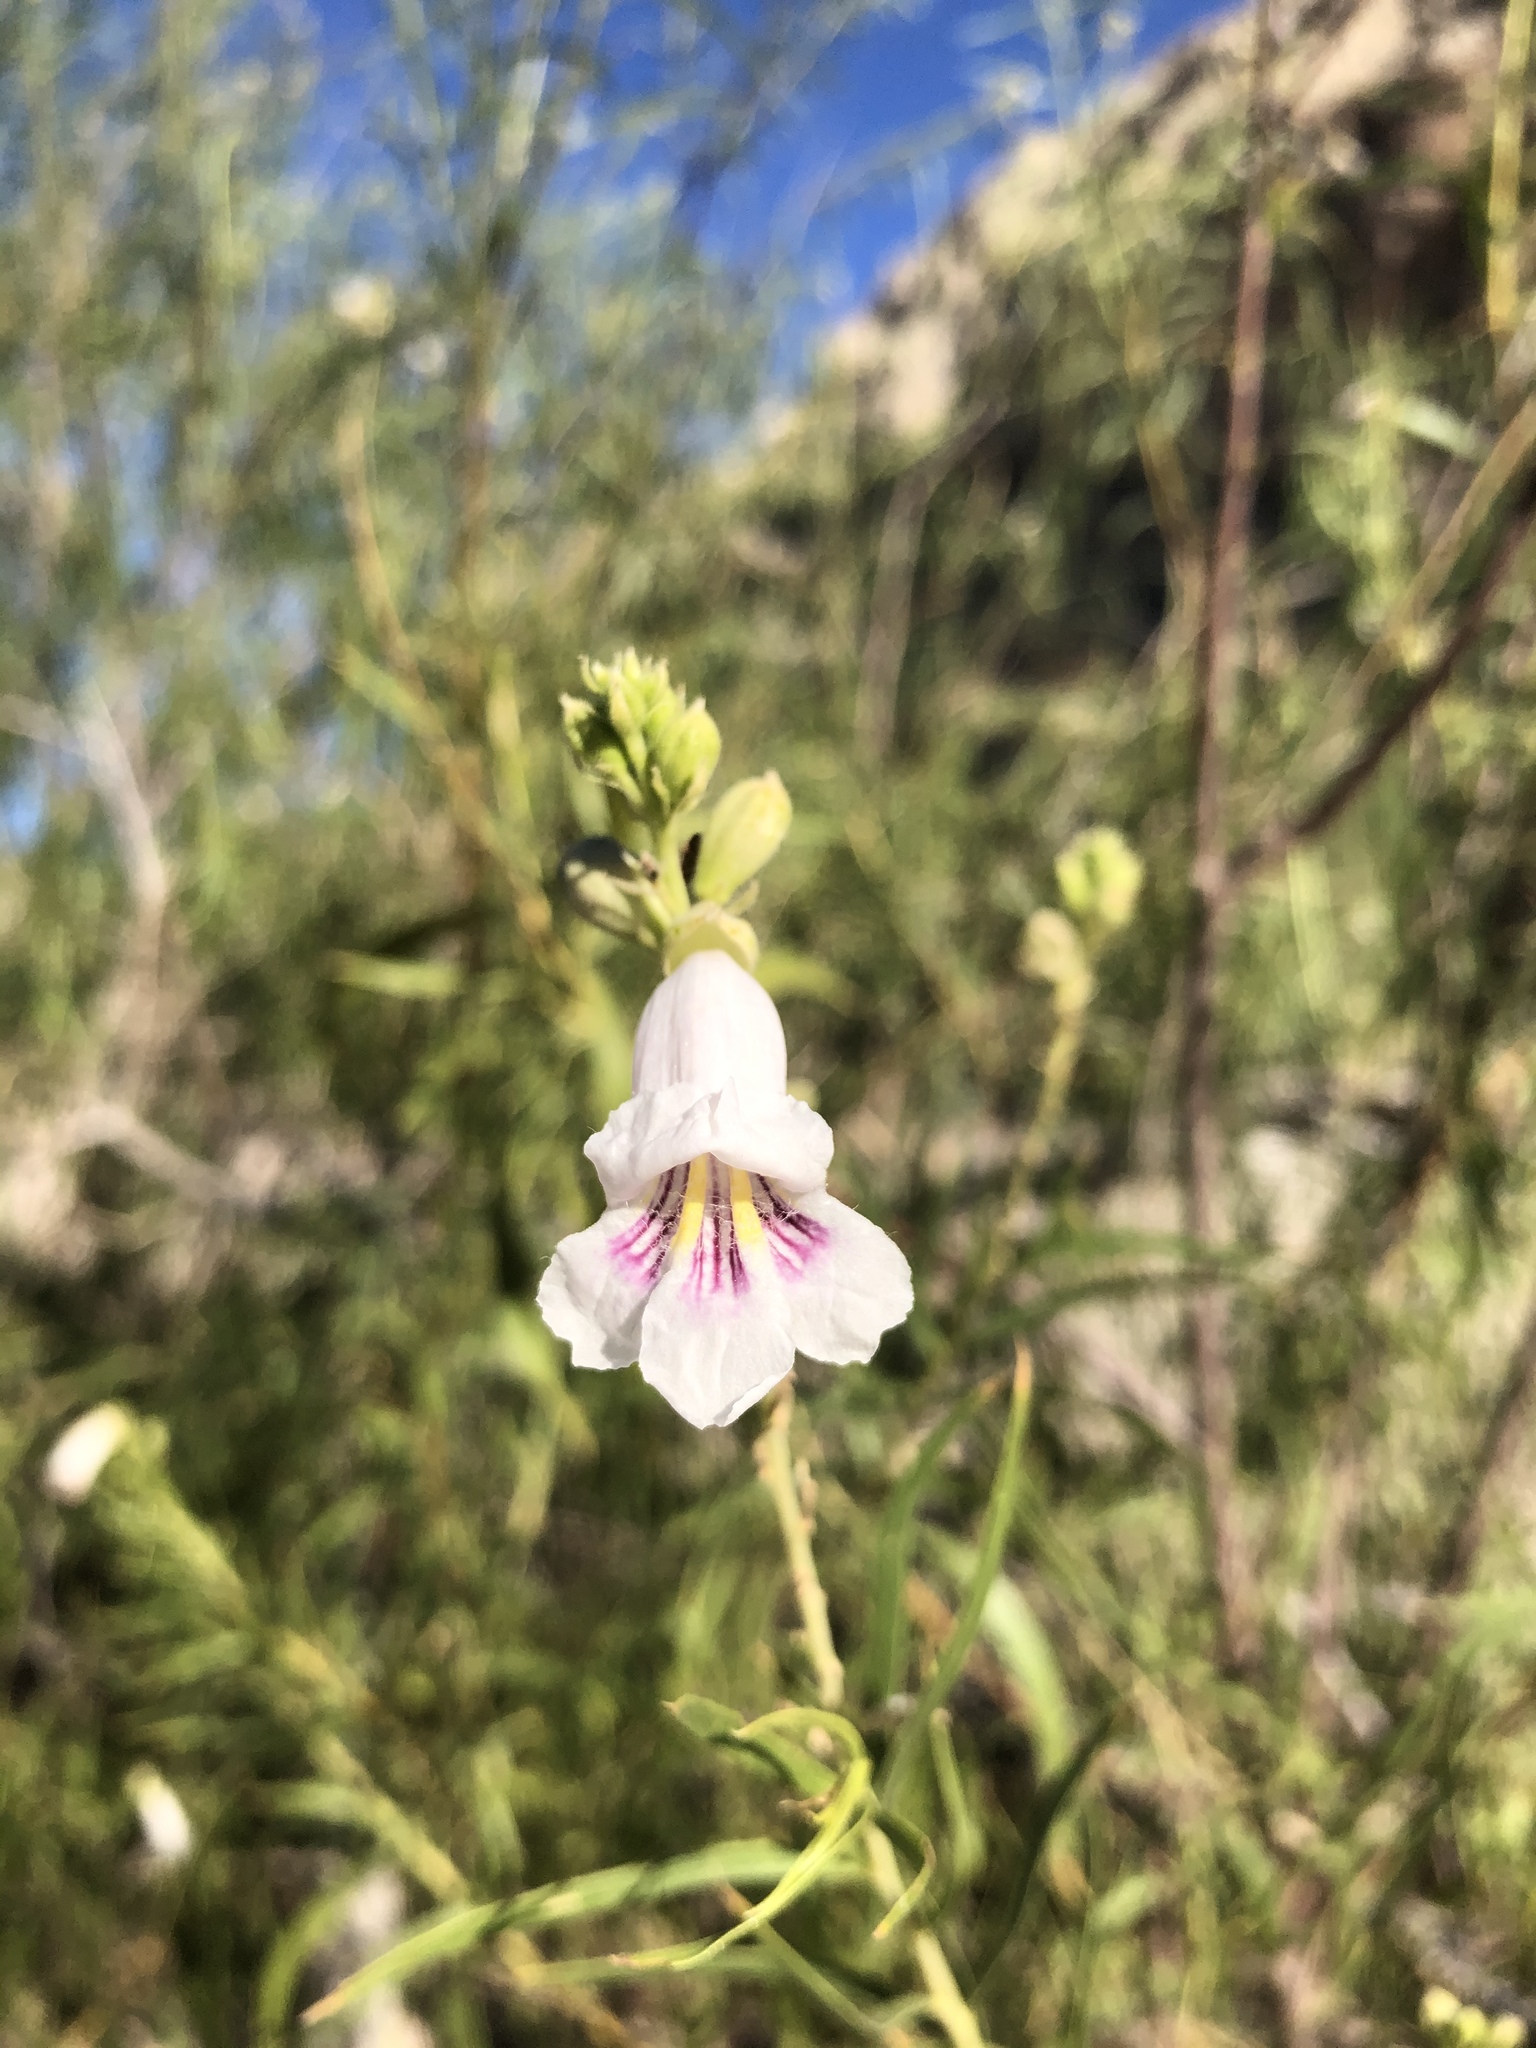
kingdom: Plantae
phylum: Tracheophyta
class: Magnoliopsida
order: Lamiales
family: Bignoniaceae
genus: Chilopsis
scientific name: Chilopsis linearis
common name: Desert-willow
